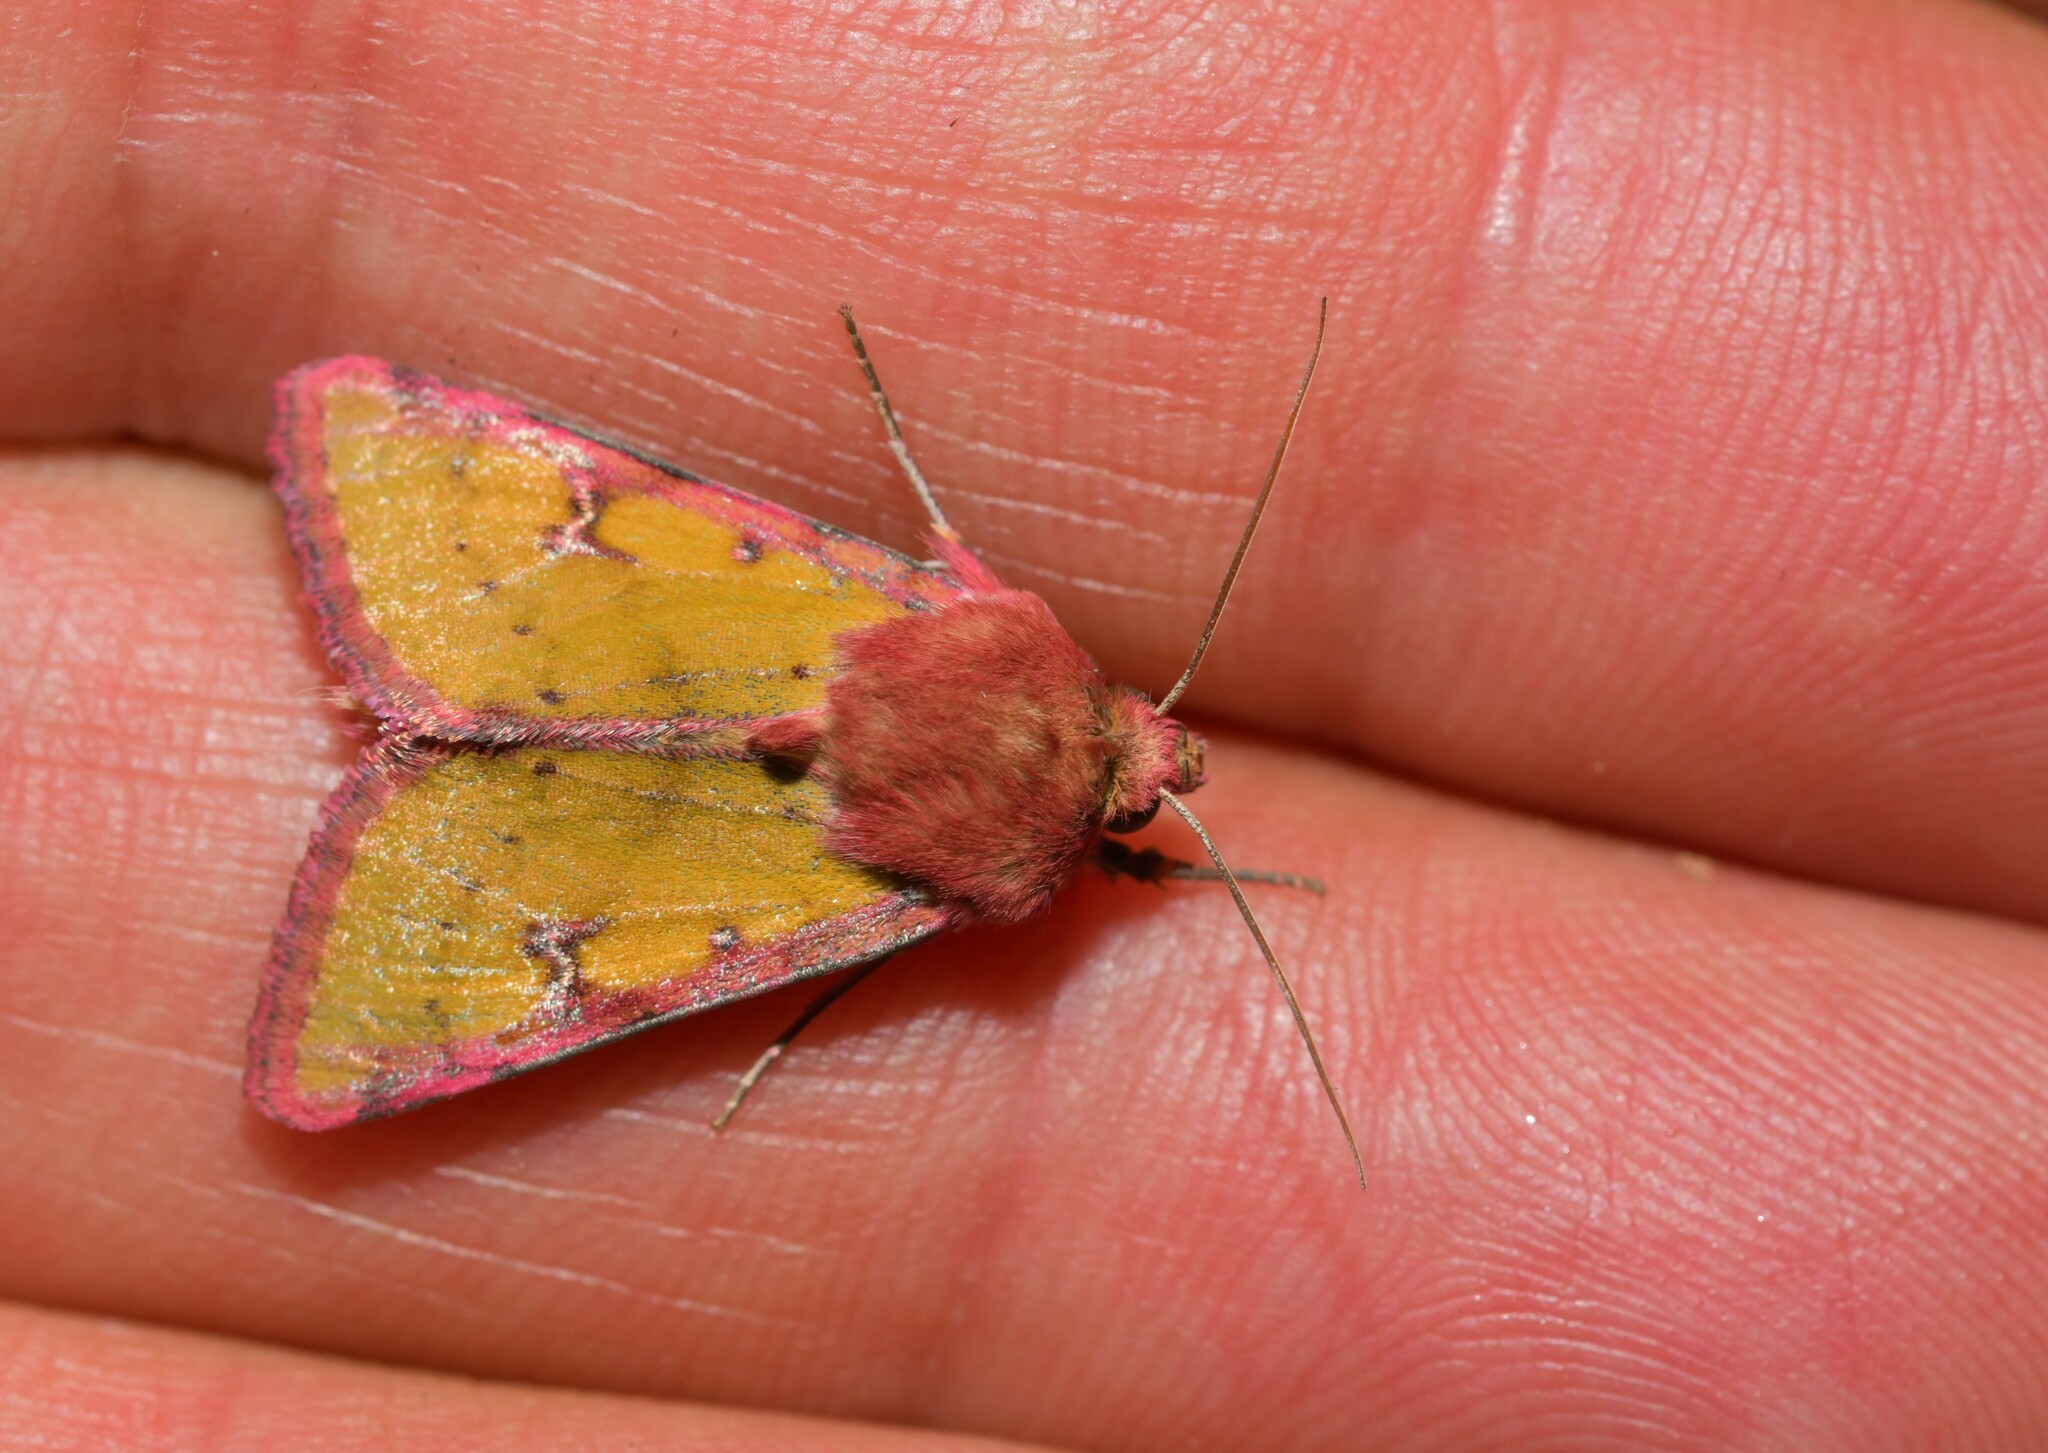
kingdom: Animalia
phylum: Arthropoda
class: Insecta
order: Lepidoptera
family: Noctuidae
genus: Heliothis
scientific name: Heliothis incarnata
